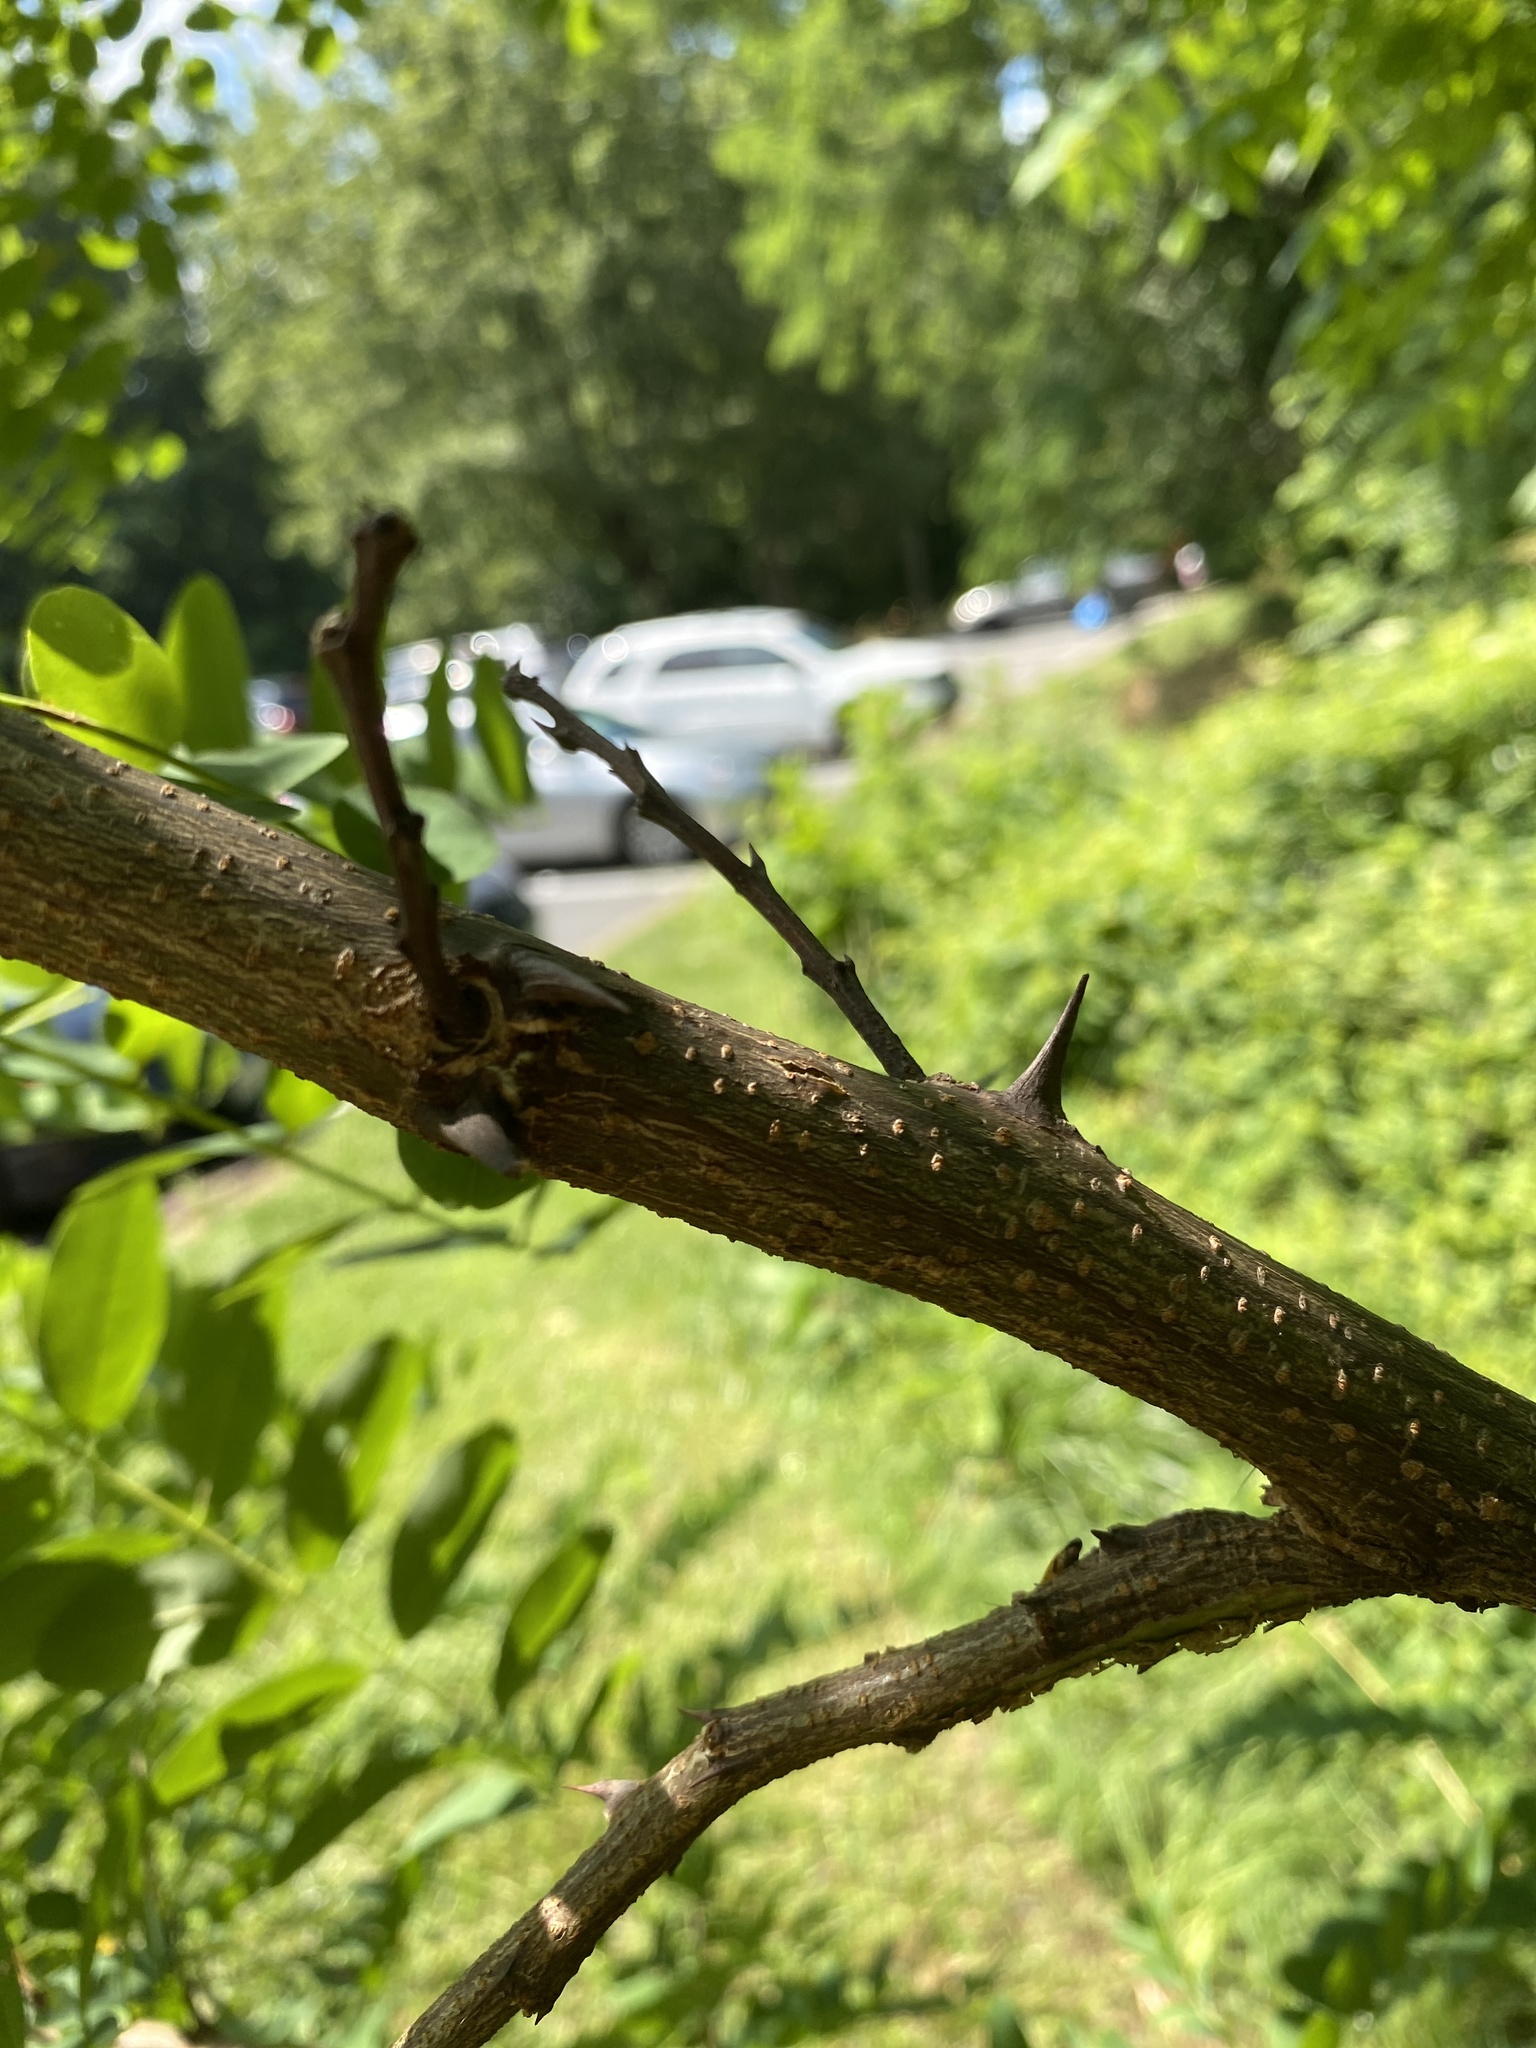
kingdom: Plantae
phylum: Tracheophyta
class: Magnoliopsida
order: Fabales
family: Fabaceae
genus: Robinia
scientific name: Robinia pseudoacacia
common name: Black locust
